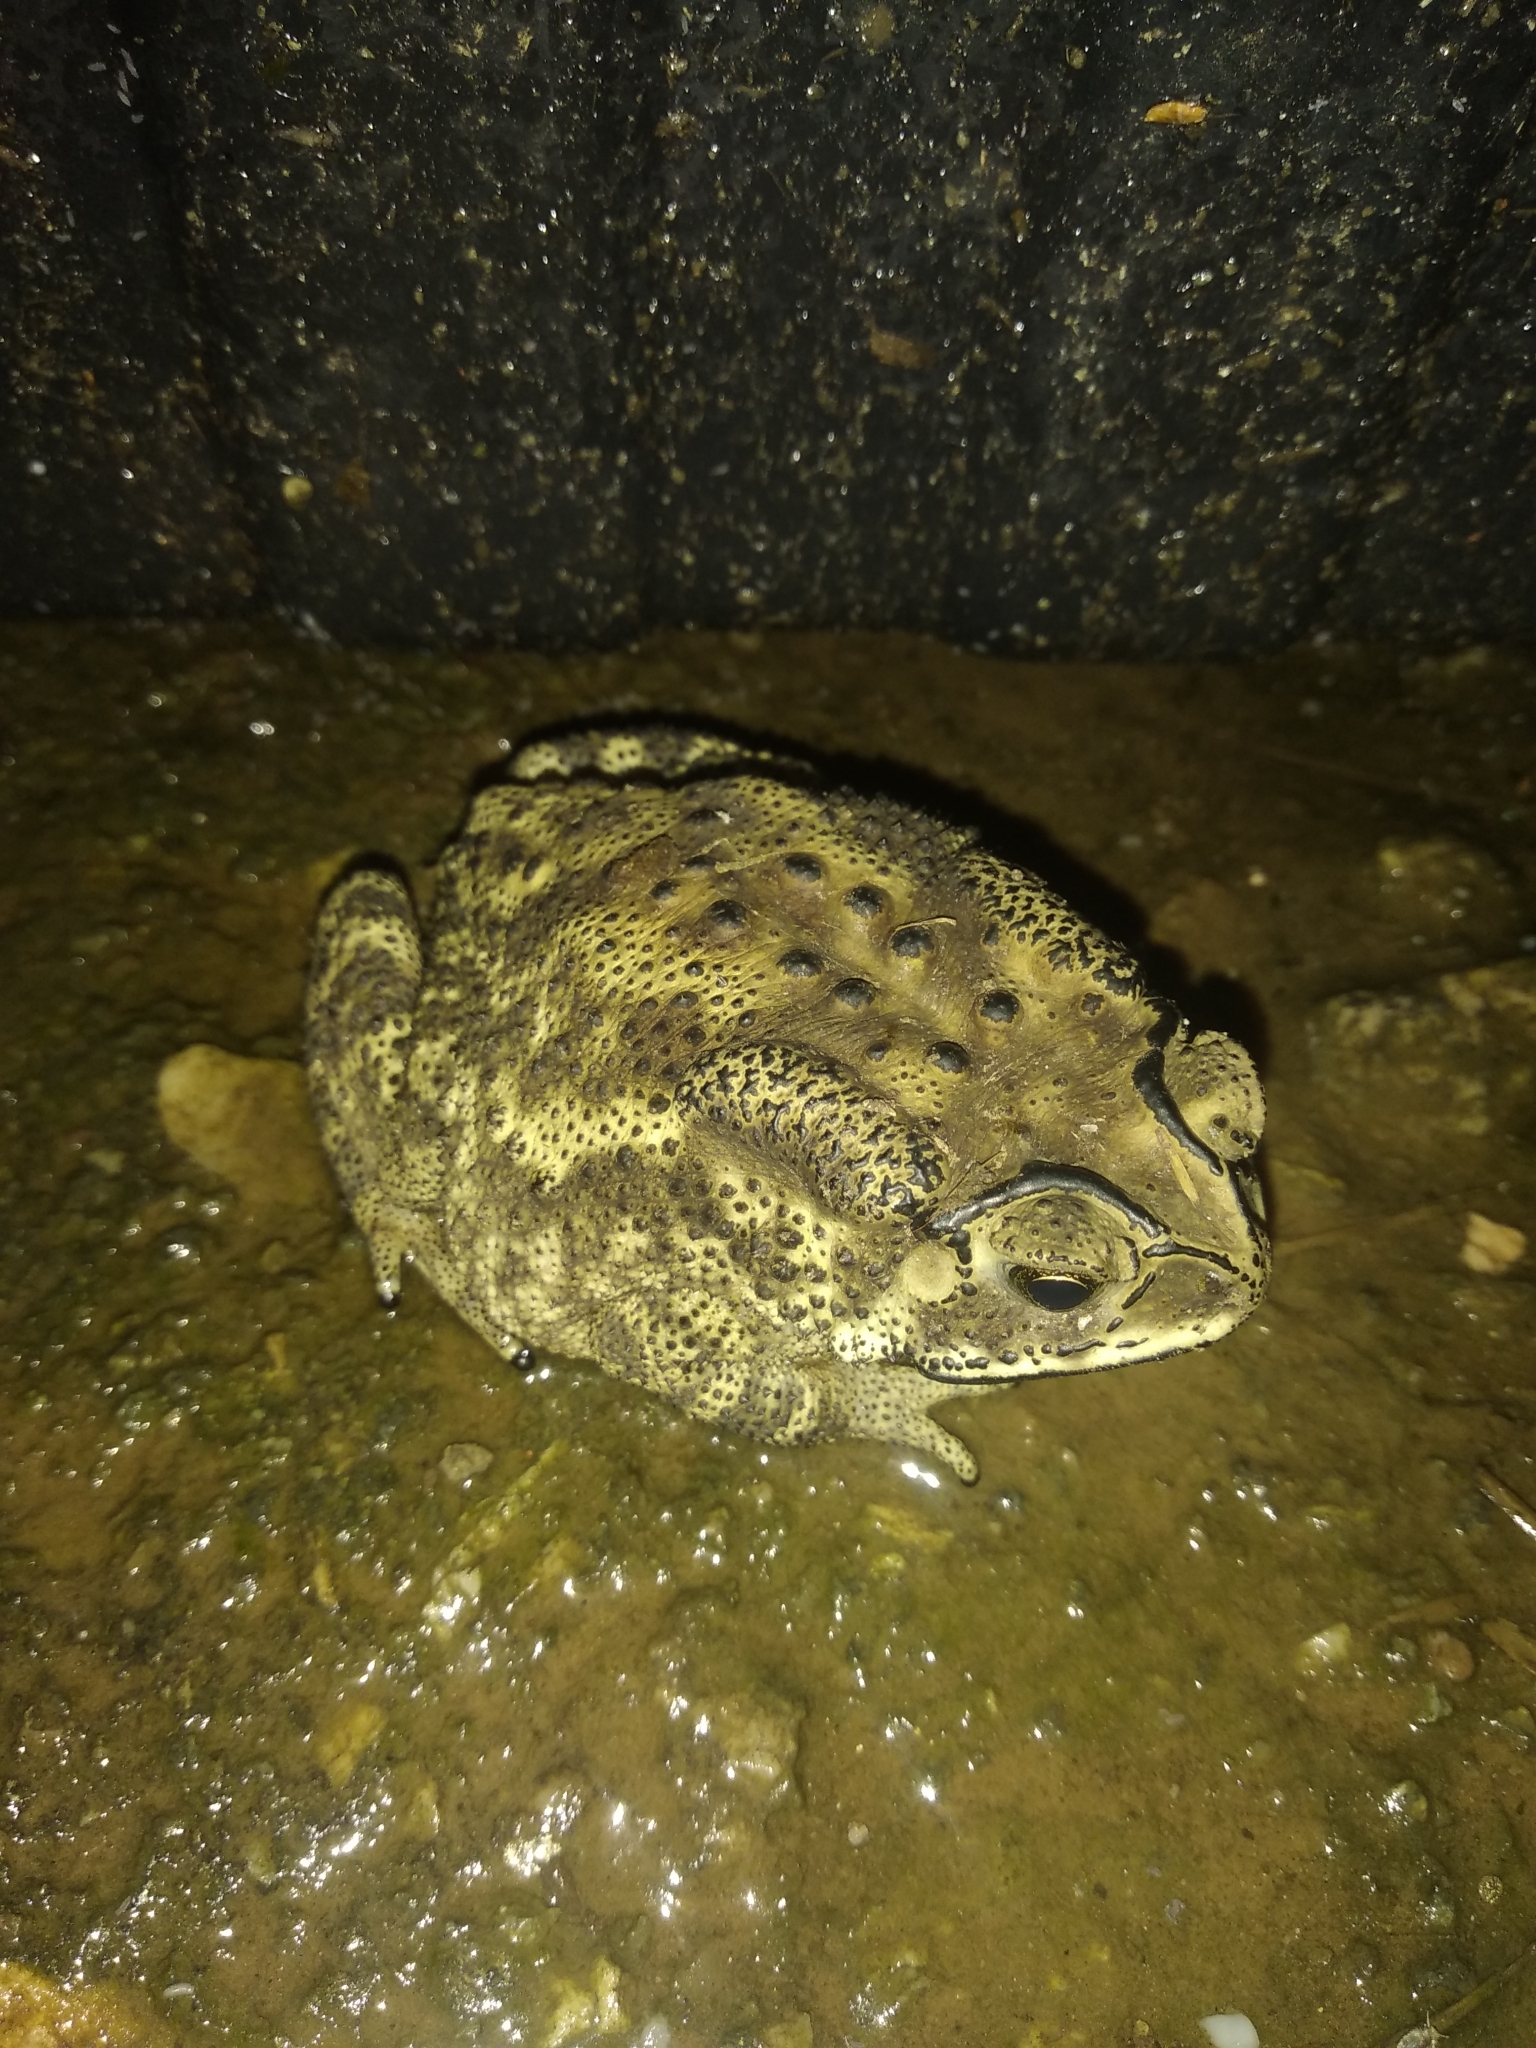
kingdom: Animalia
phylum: Chordata
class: Amphibia
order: Anura
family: Bufonidae
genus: Duttaphrynus
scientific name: Duttaphrynus melanostictus
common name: Common sunda toad
